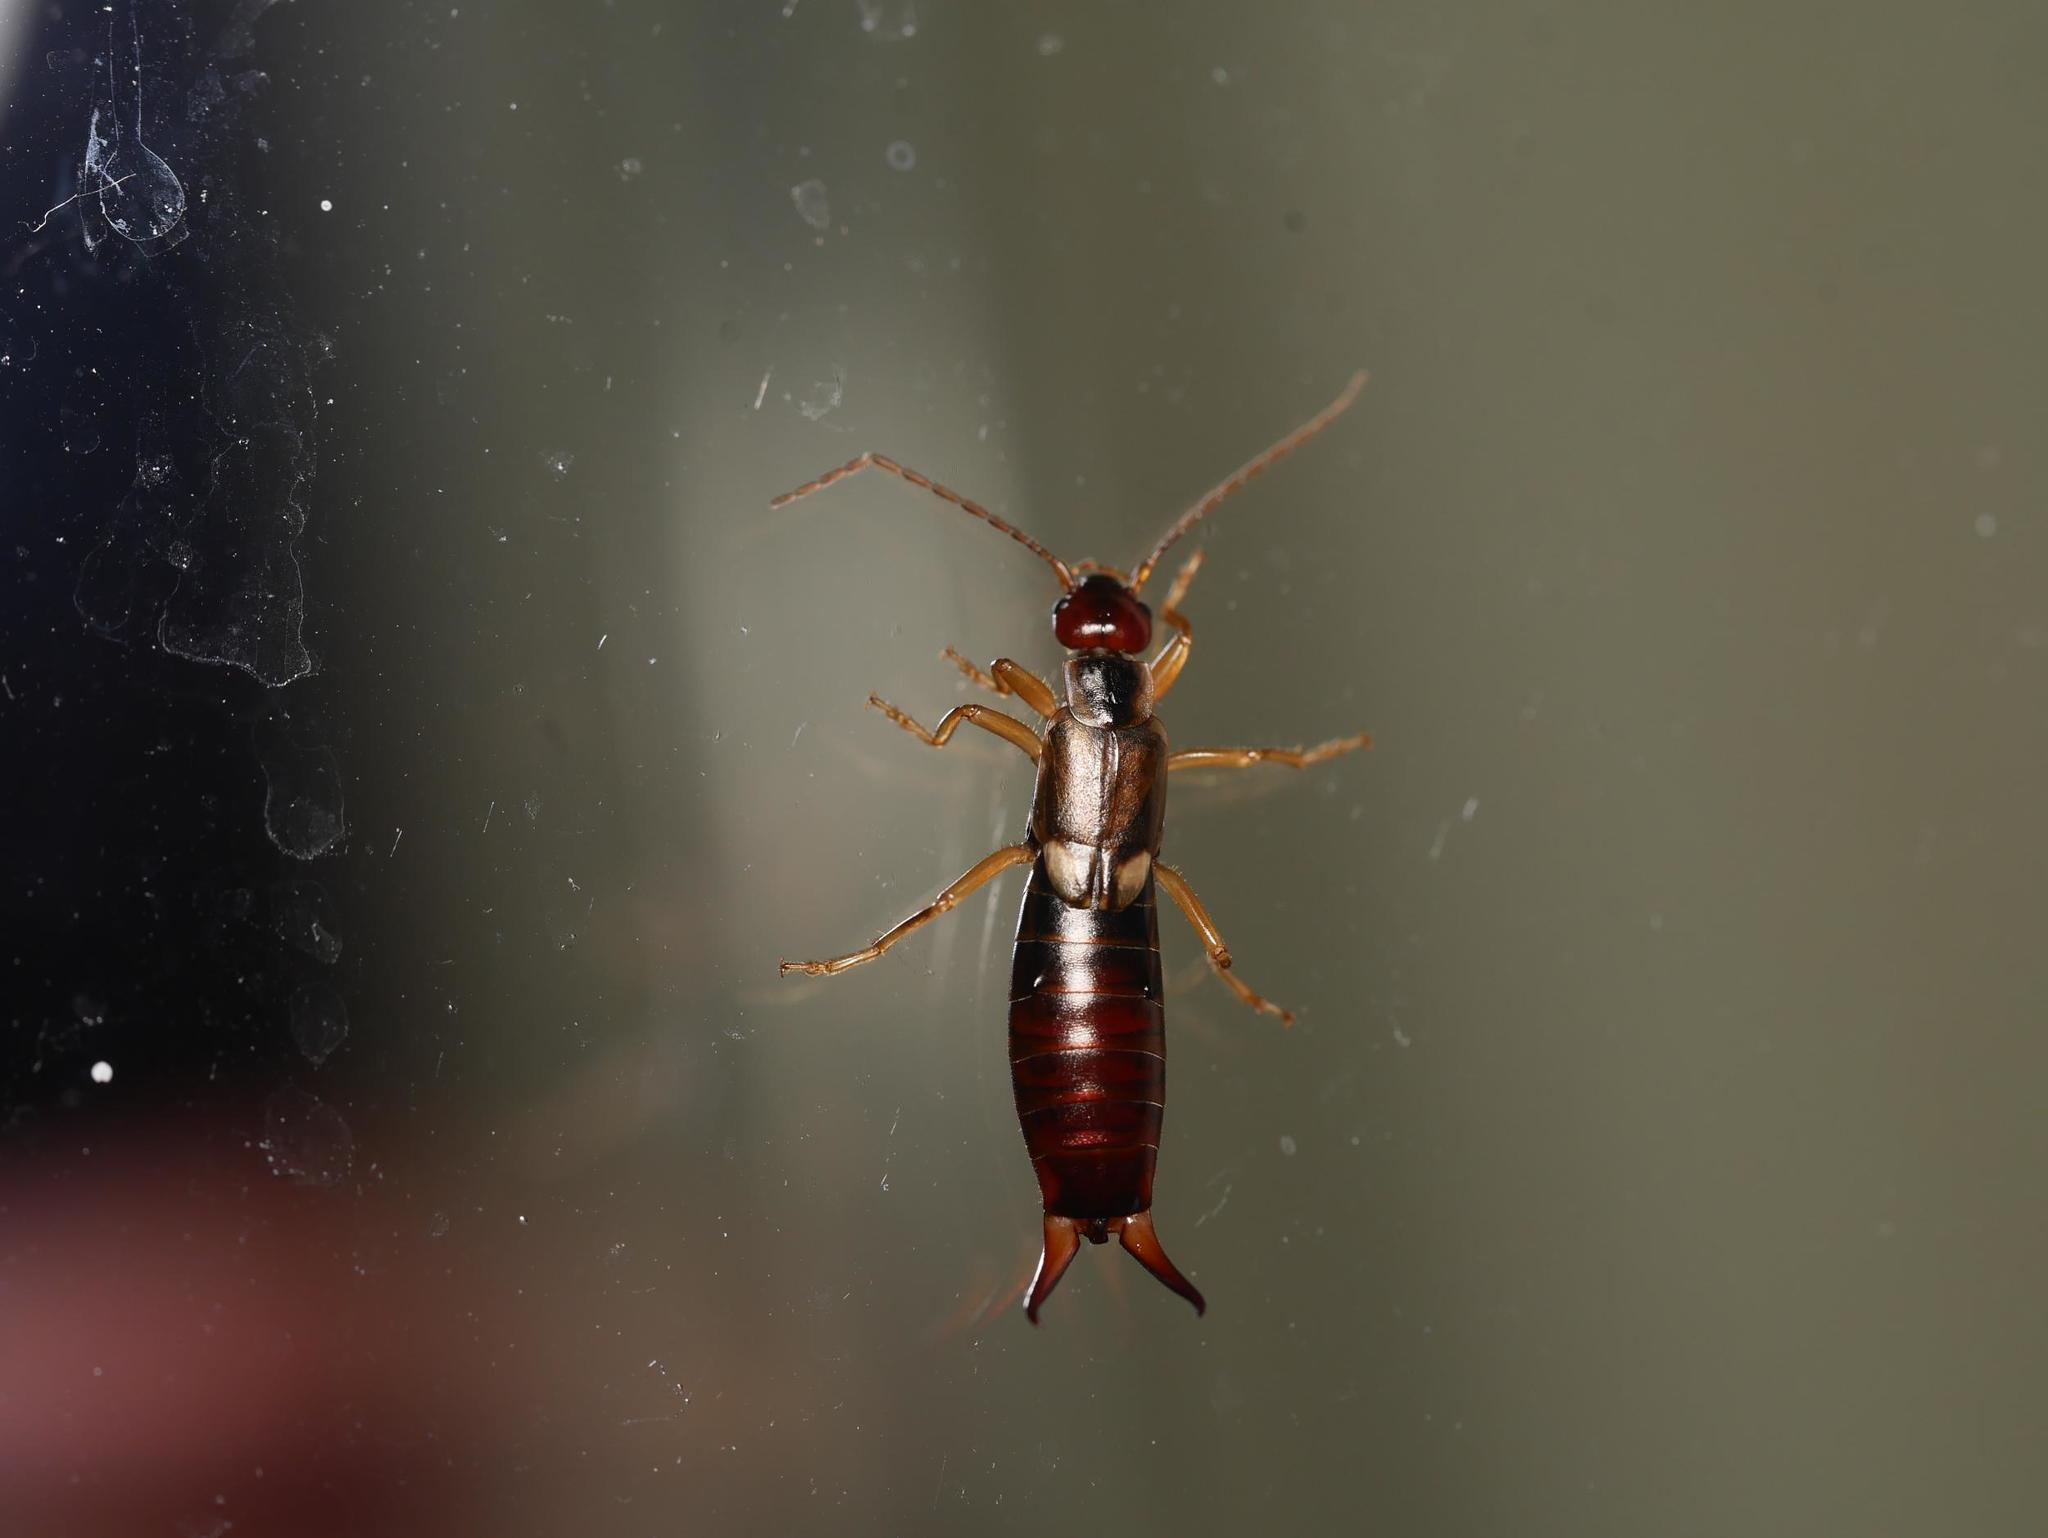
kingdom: Animalia
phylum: Arthropoda
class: Insecta
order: Dermaptera
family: Forficulidae
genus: Forficula
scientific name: Forficula
